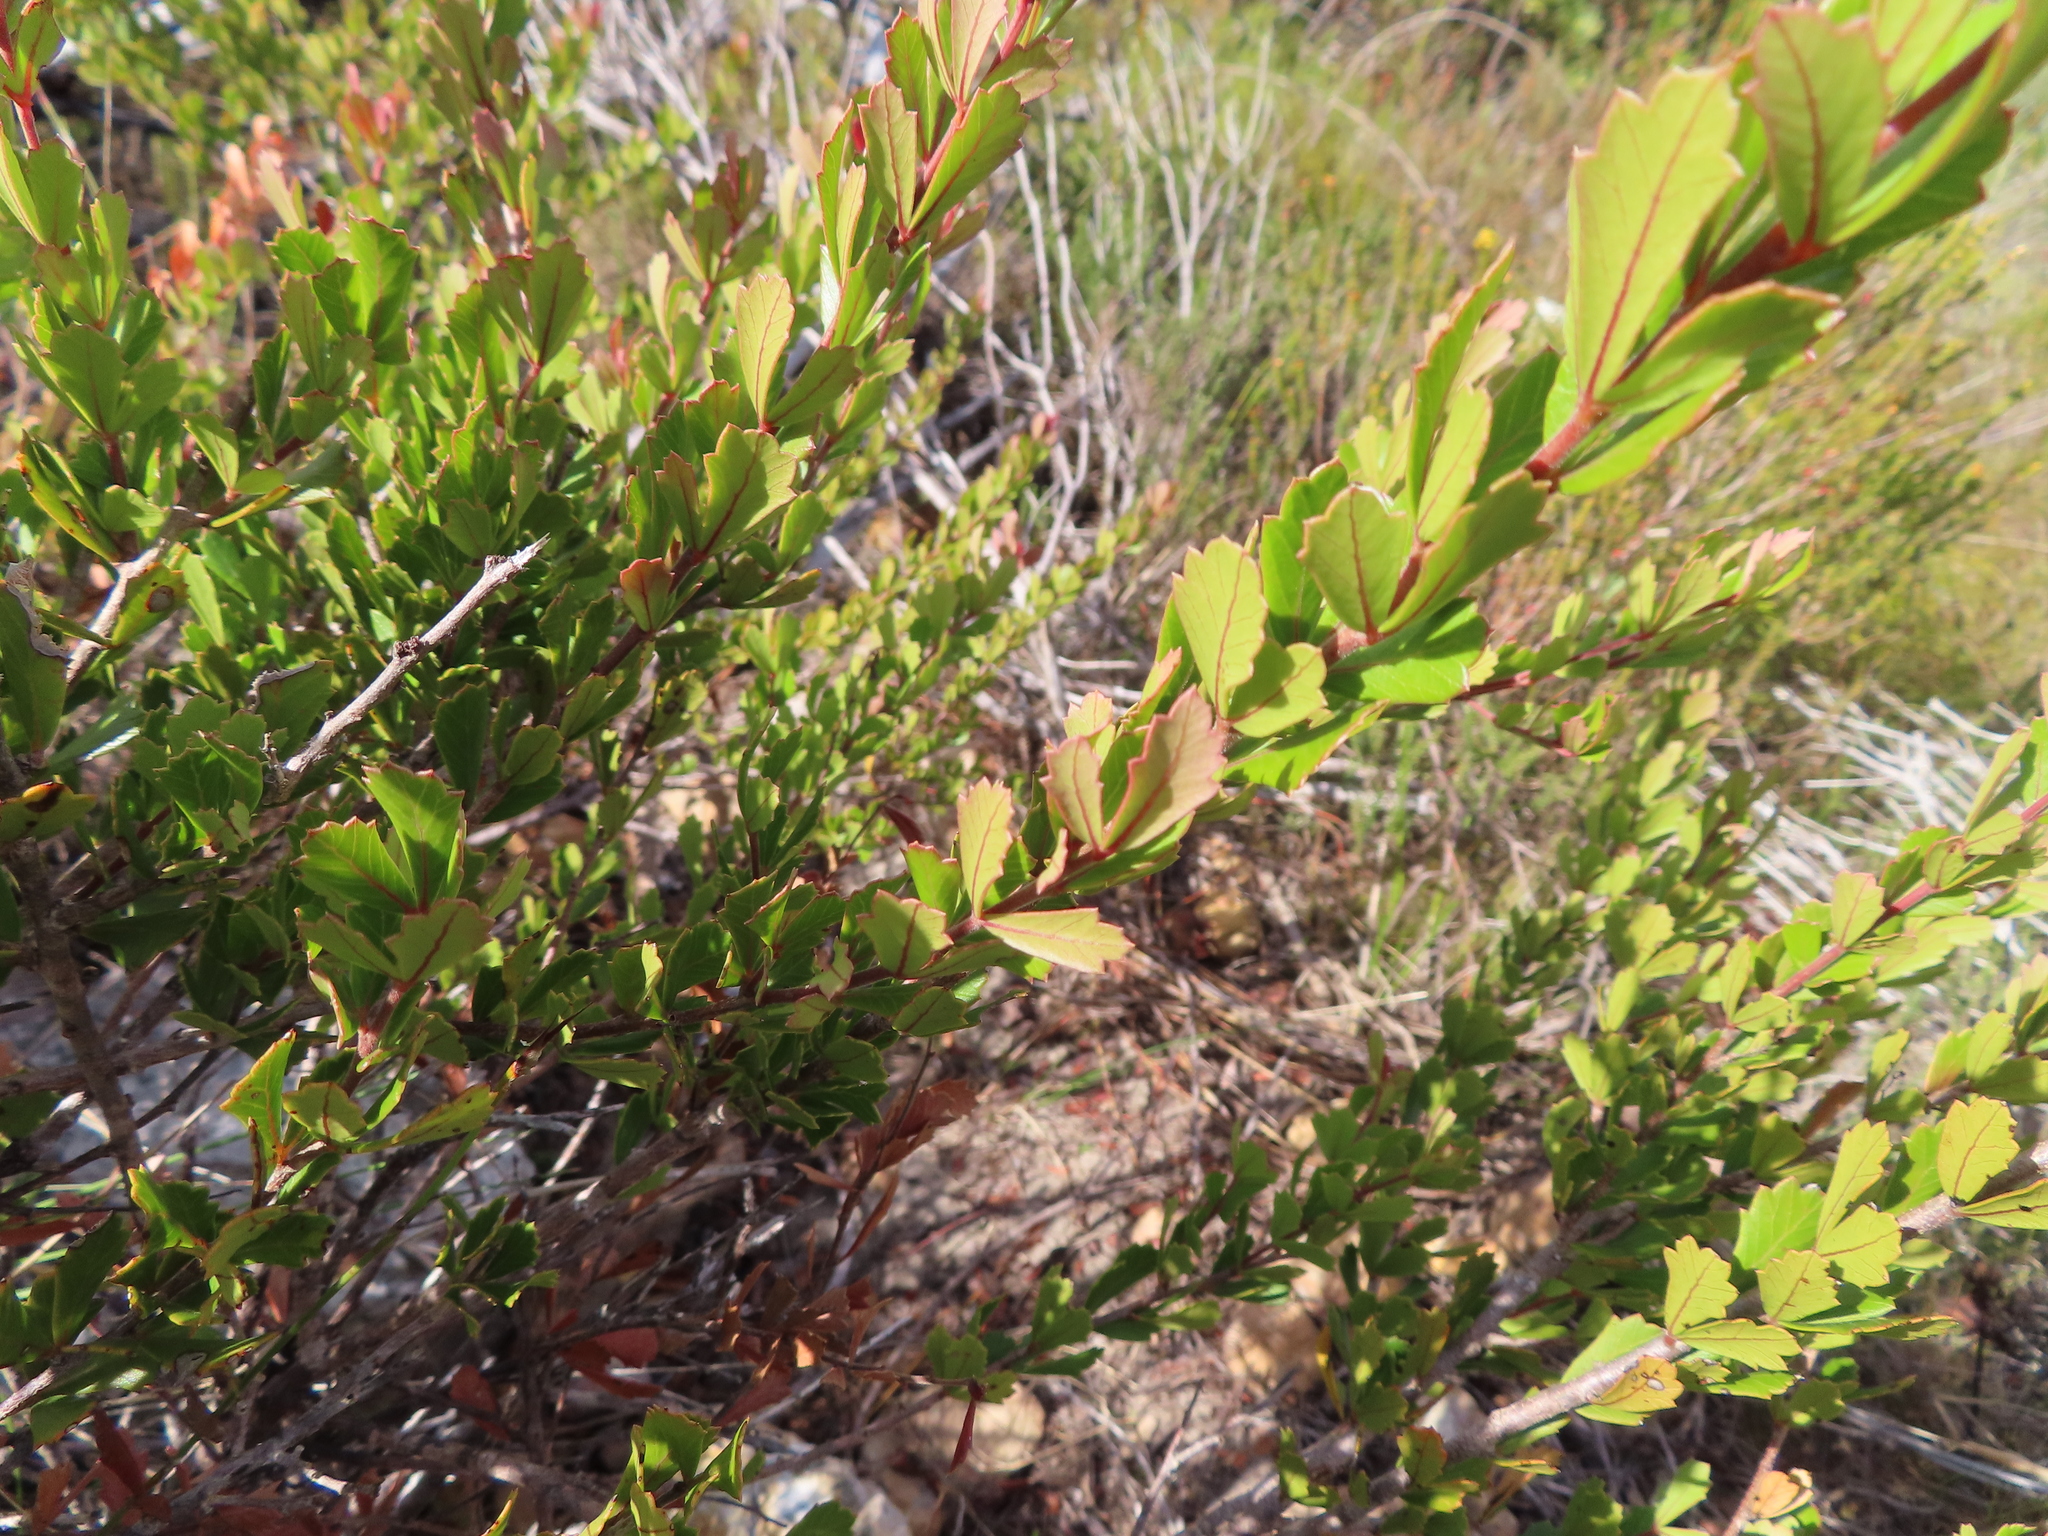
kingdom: Plantae
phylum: Tracheophyta
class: Magnoliopsida
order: Sapindales
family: Anacardiaceae
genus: Searsia
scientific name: Searsia cuneifolia
